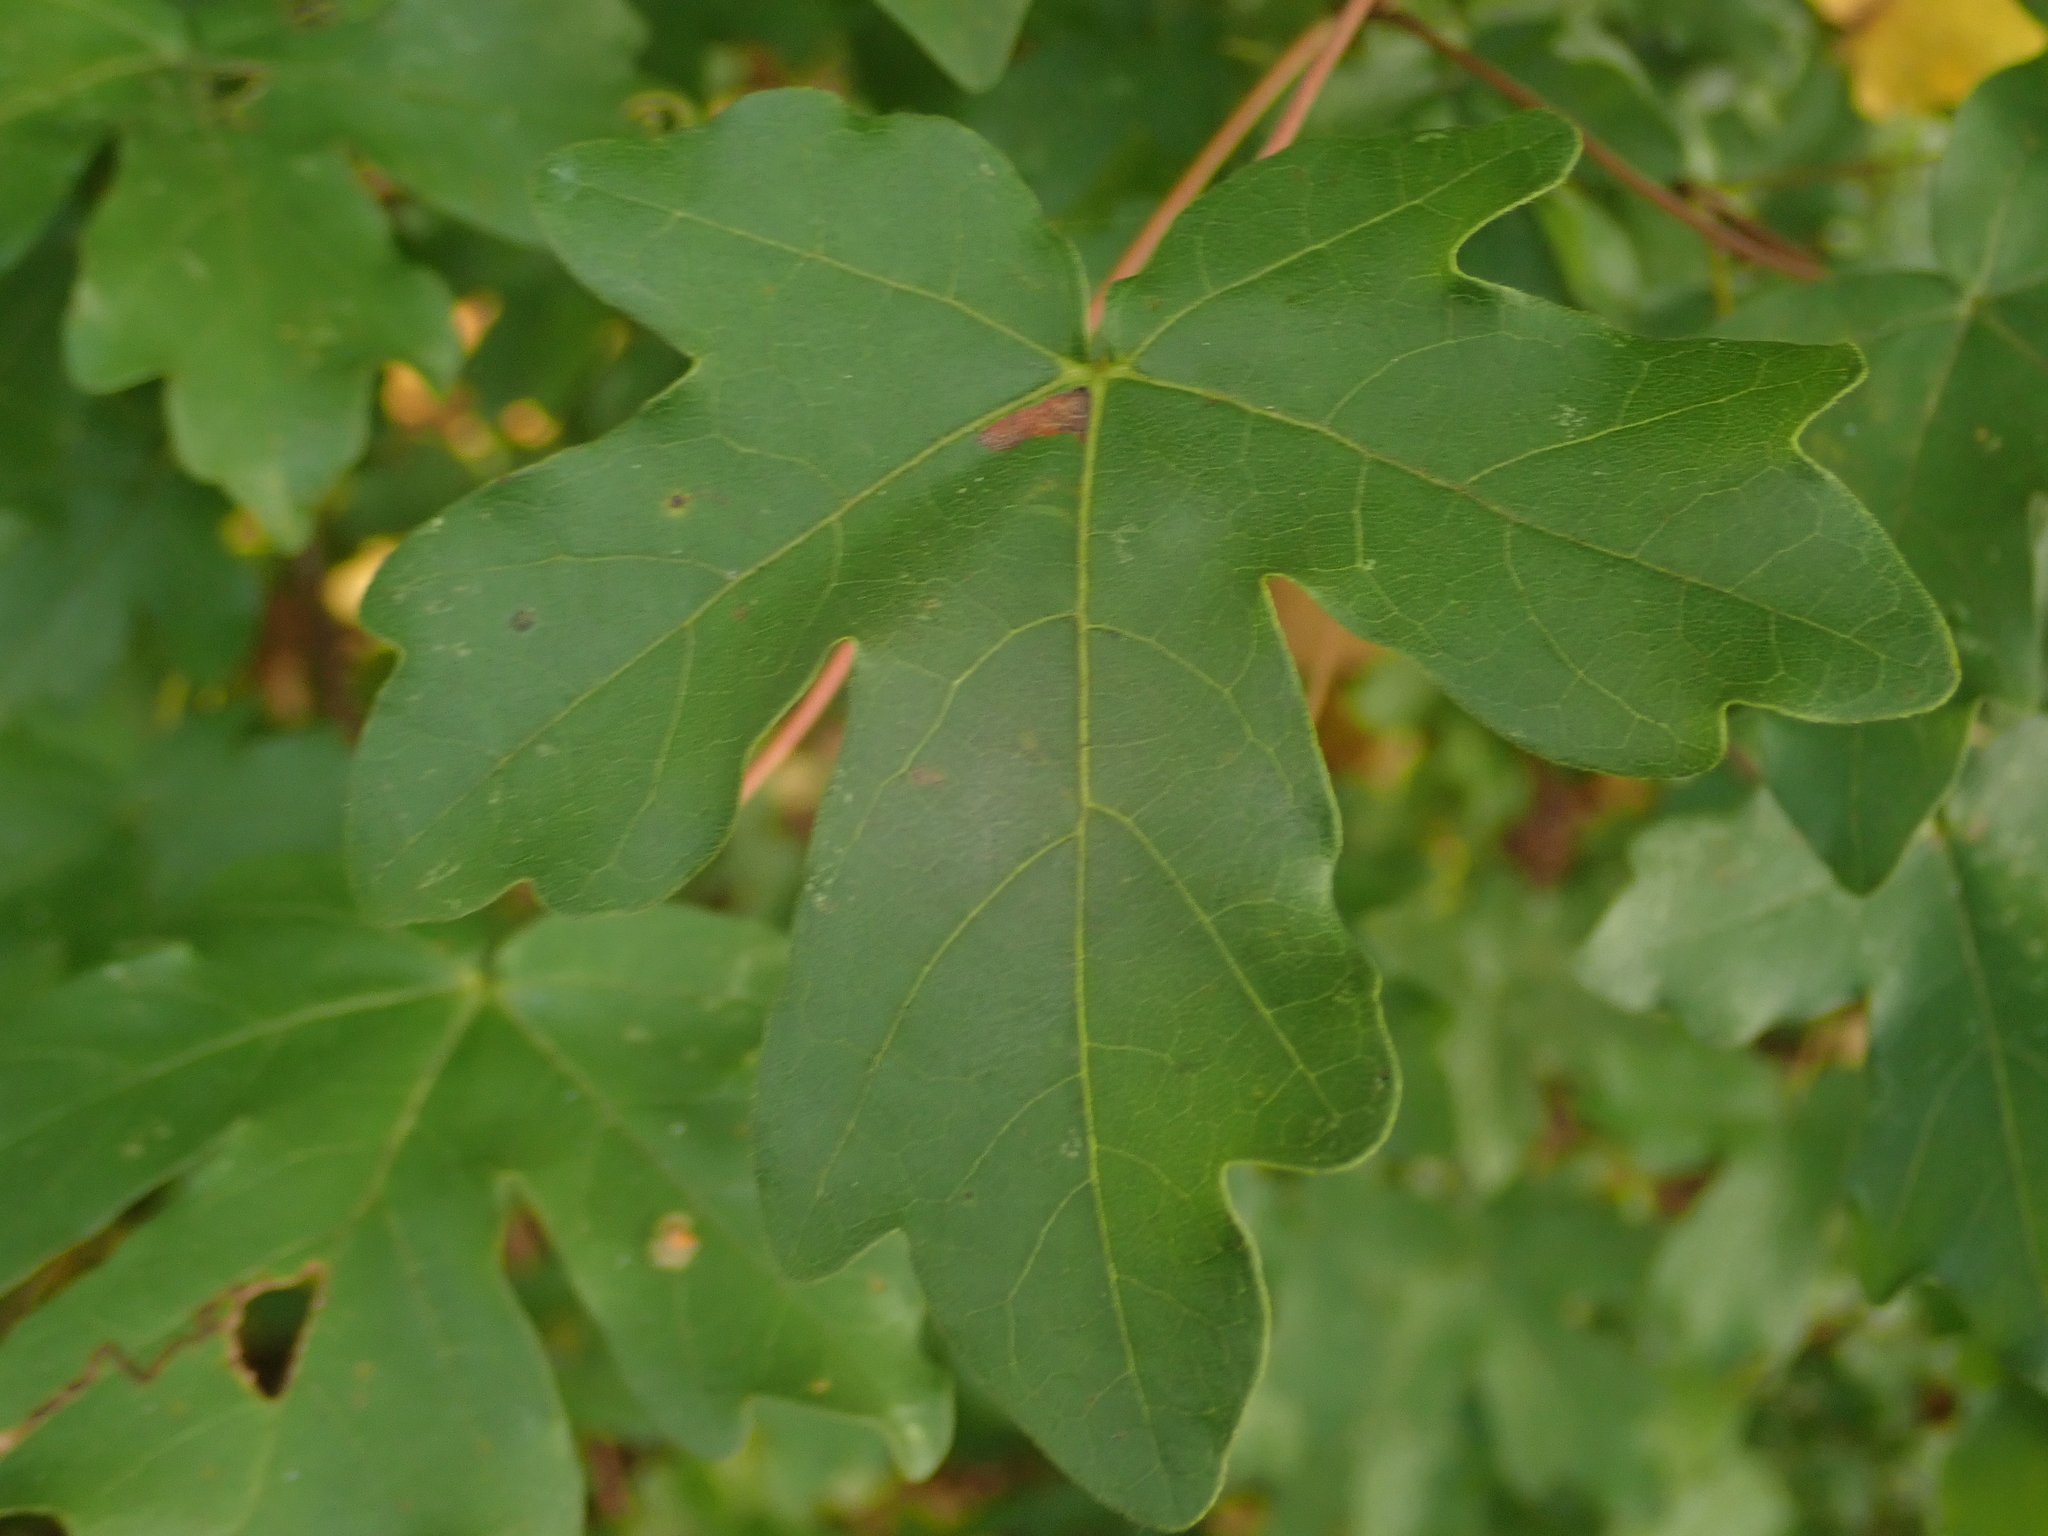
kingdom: Plantae
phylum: Tracheophyta
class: Magnoliopsida
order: Sapindales
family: Sapindaceae
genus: Acer
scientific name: Acer campestre
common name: Field maple
